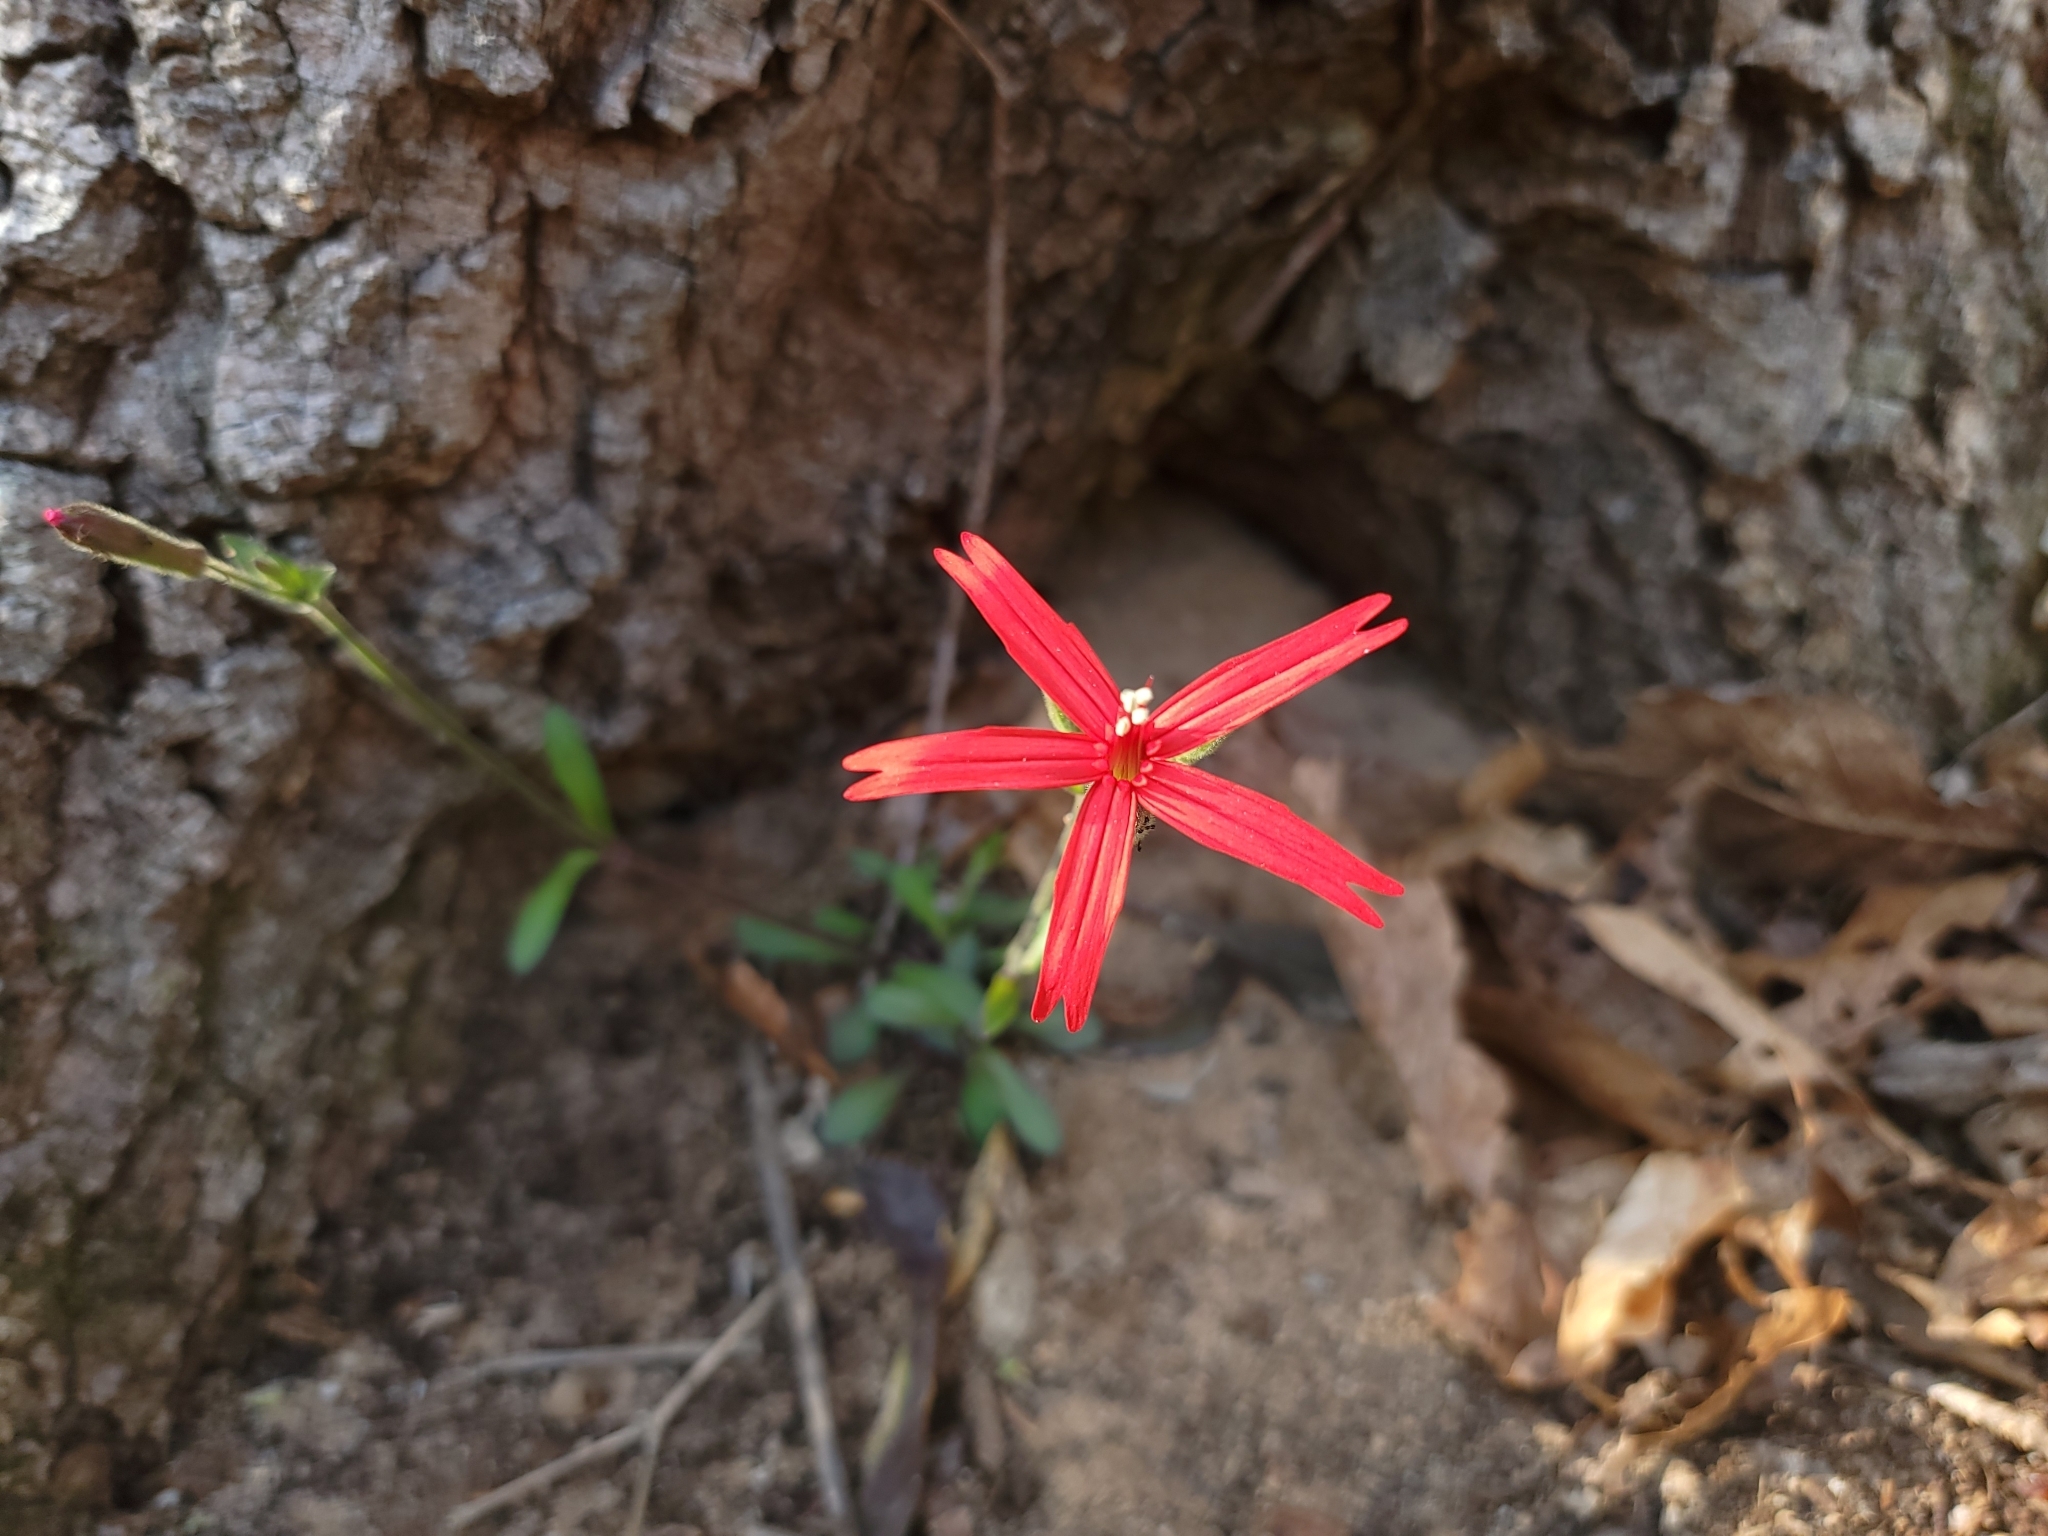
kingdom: Plantae
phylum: Tracheophyta
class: Magnoliopsida
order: Caryophyllales
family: Caryophyllaceae
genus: Silene
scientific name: Silene virginica
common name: Fire-pink
